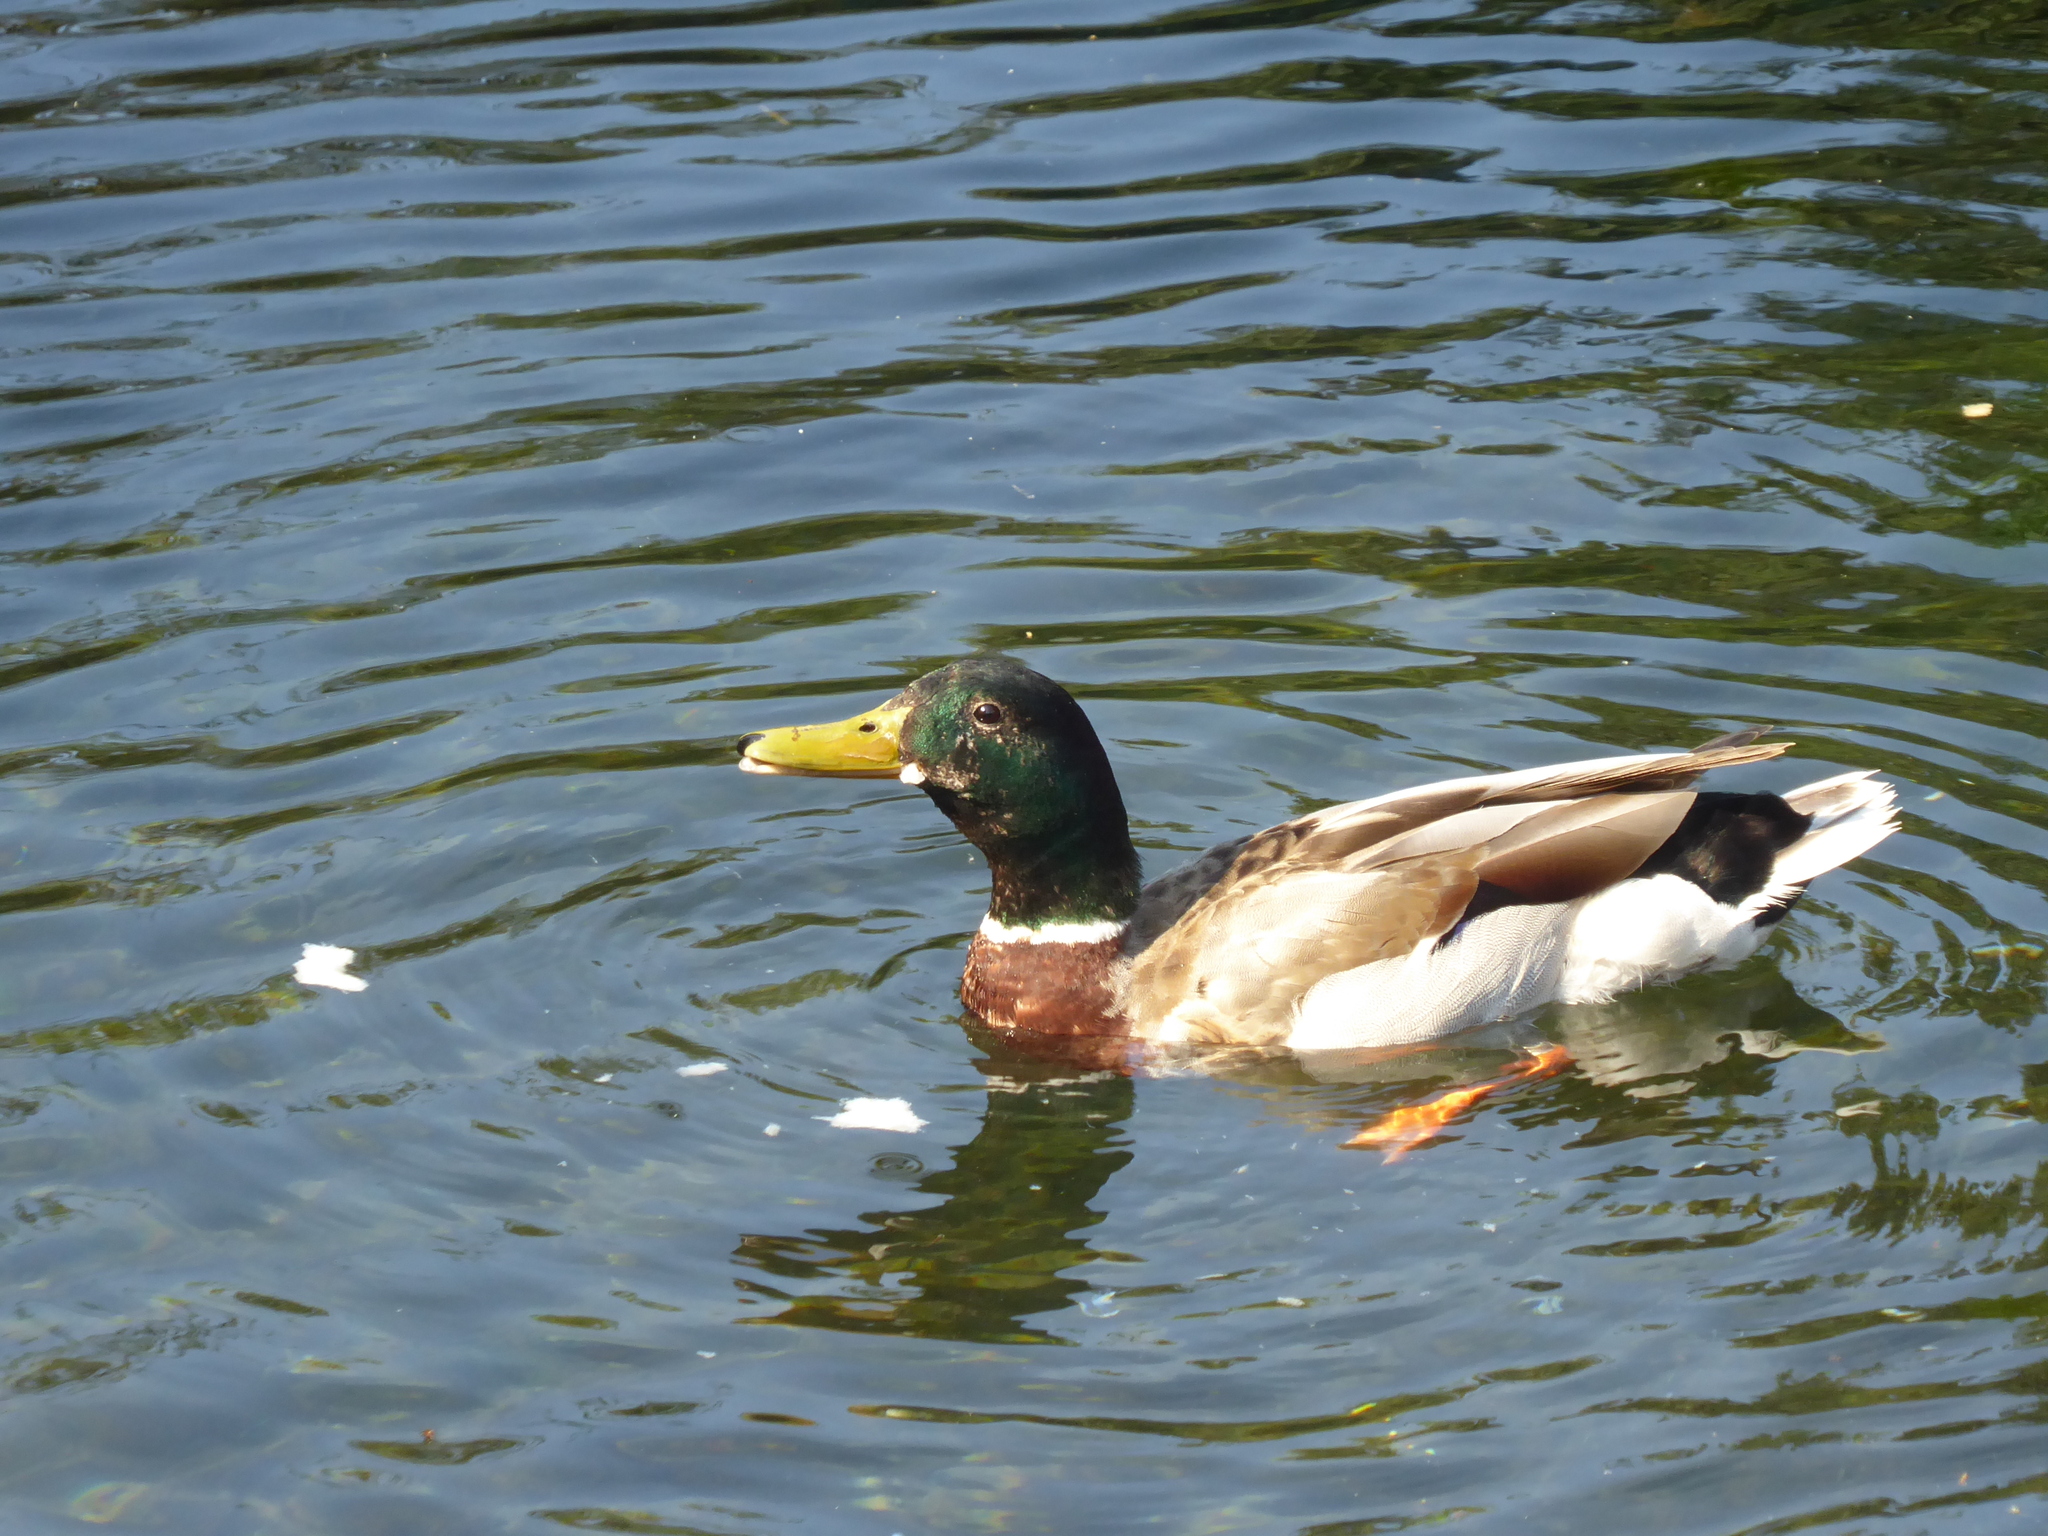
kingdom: Animalia
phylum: Chordata
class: Aves
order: Anseriformes
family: Anatidae
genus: Anas
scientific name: Anas platyrhynchos
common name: Mallard
